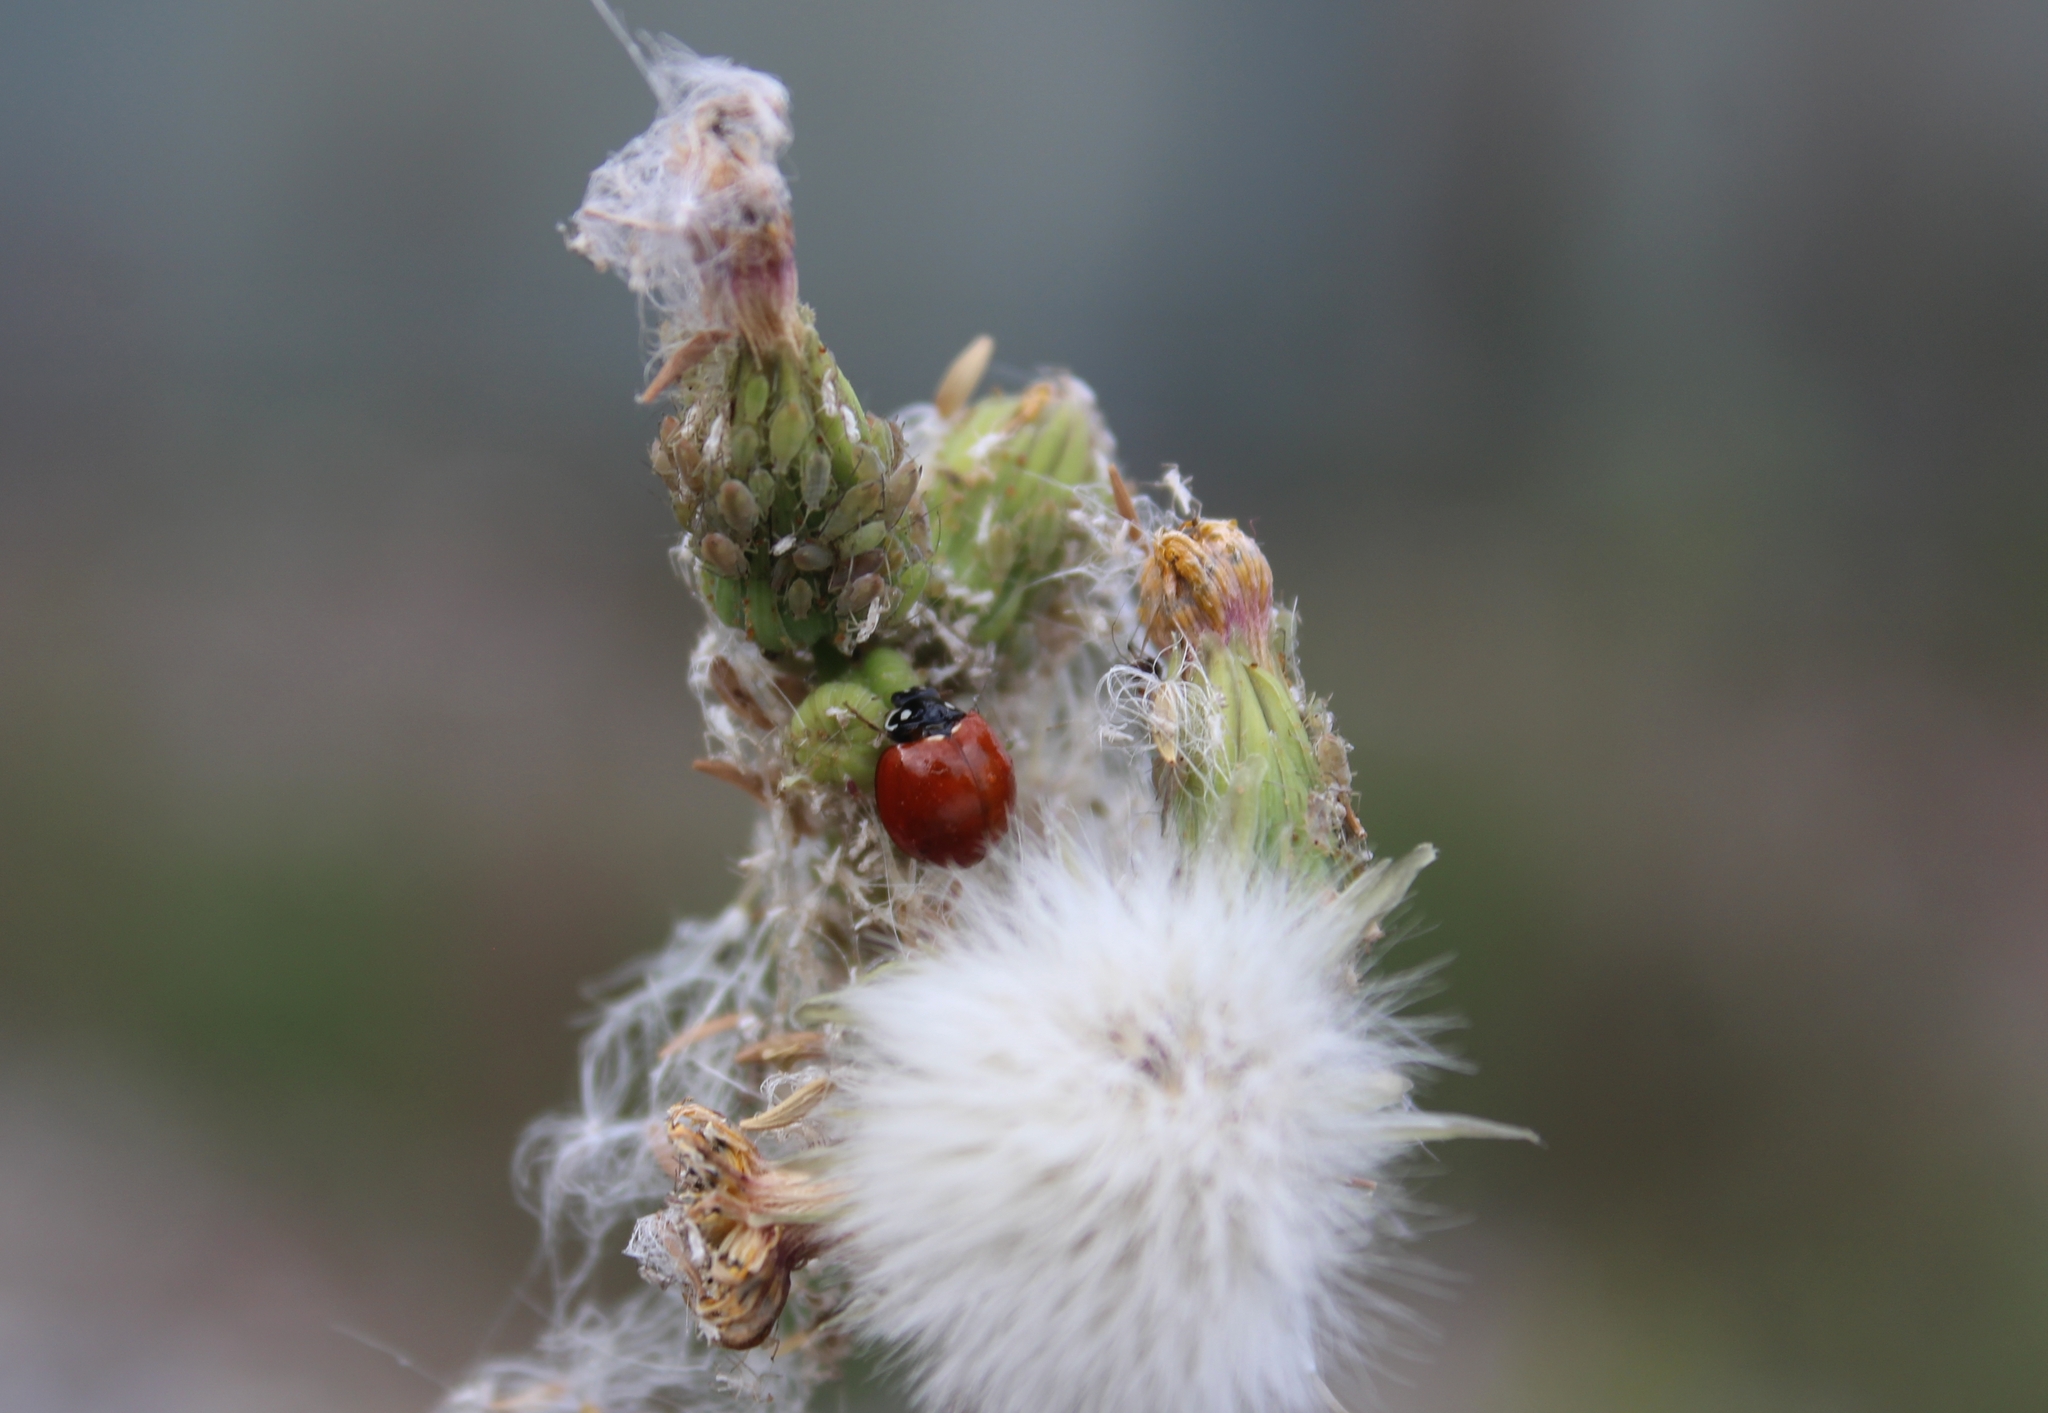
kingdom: Animalia
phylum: Arthropoda
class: Insecta
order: Coleoptera
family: Coccinellidae
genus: Cycloneda
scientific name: Cycloneda sanguinea
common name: Ladybird beetle
